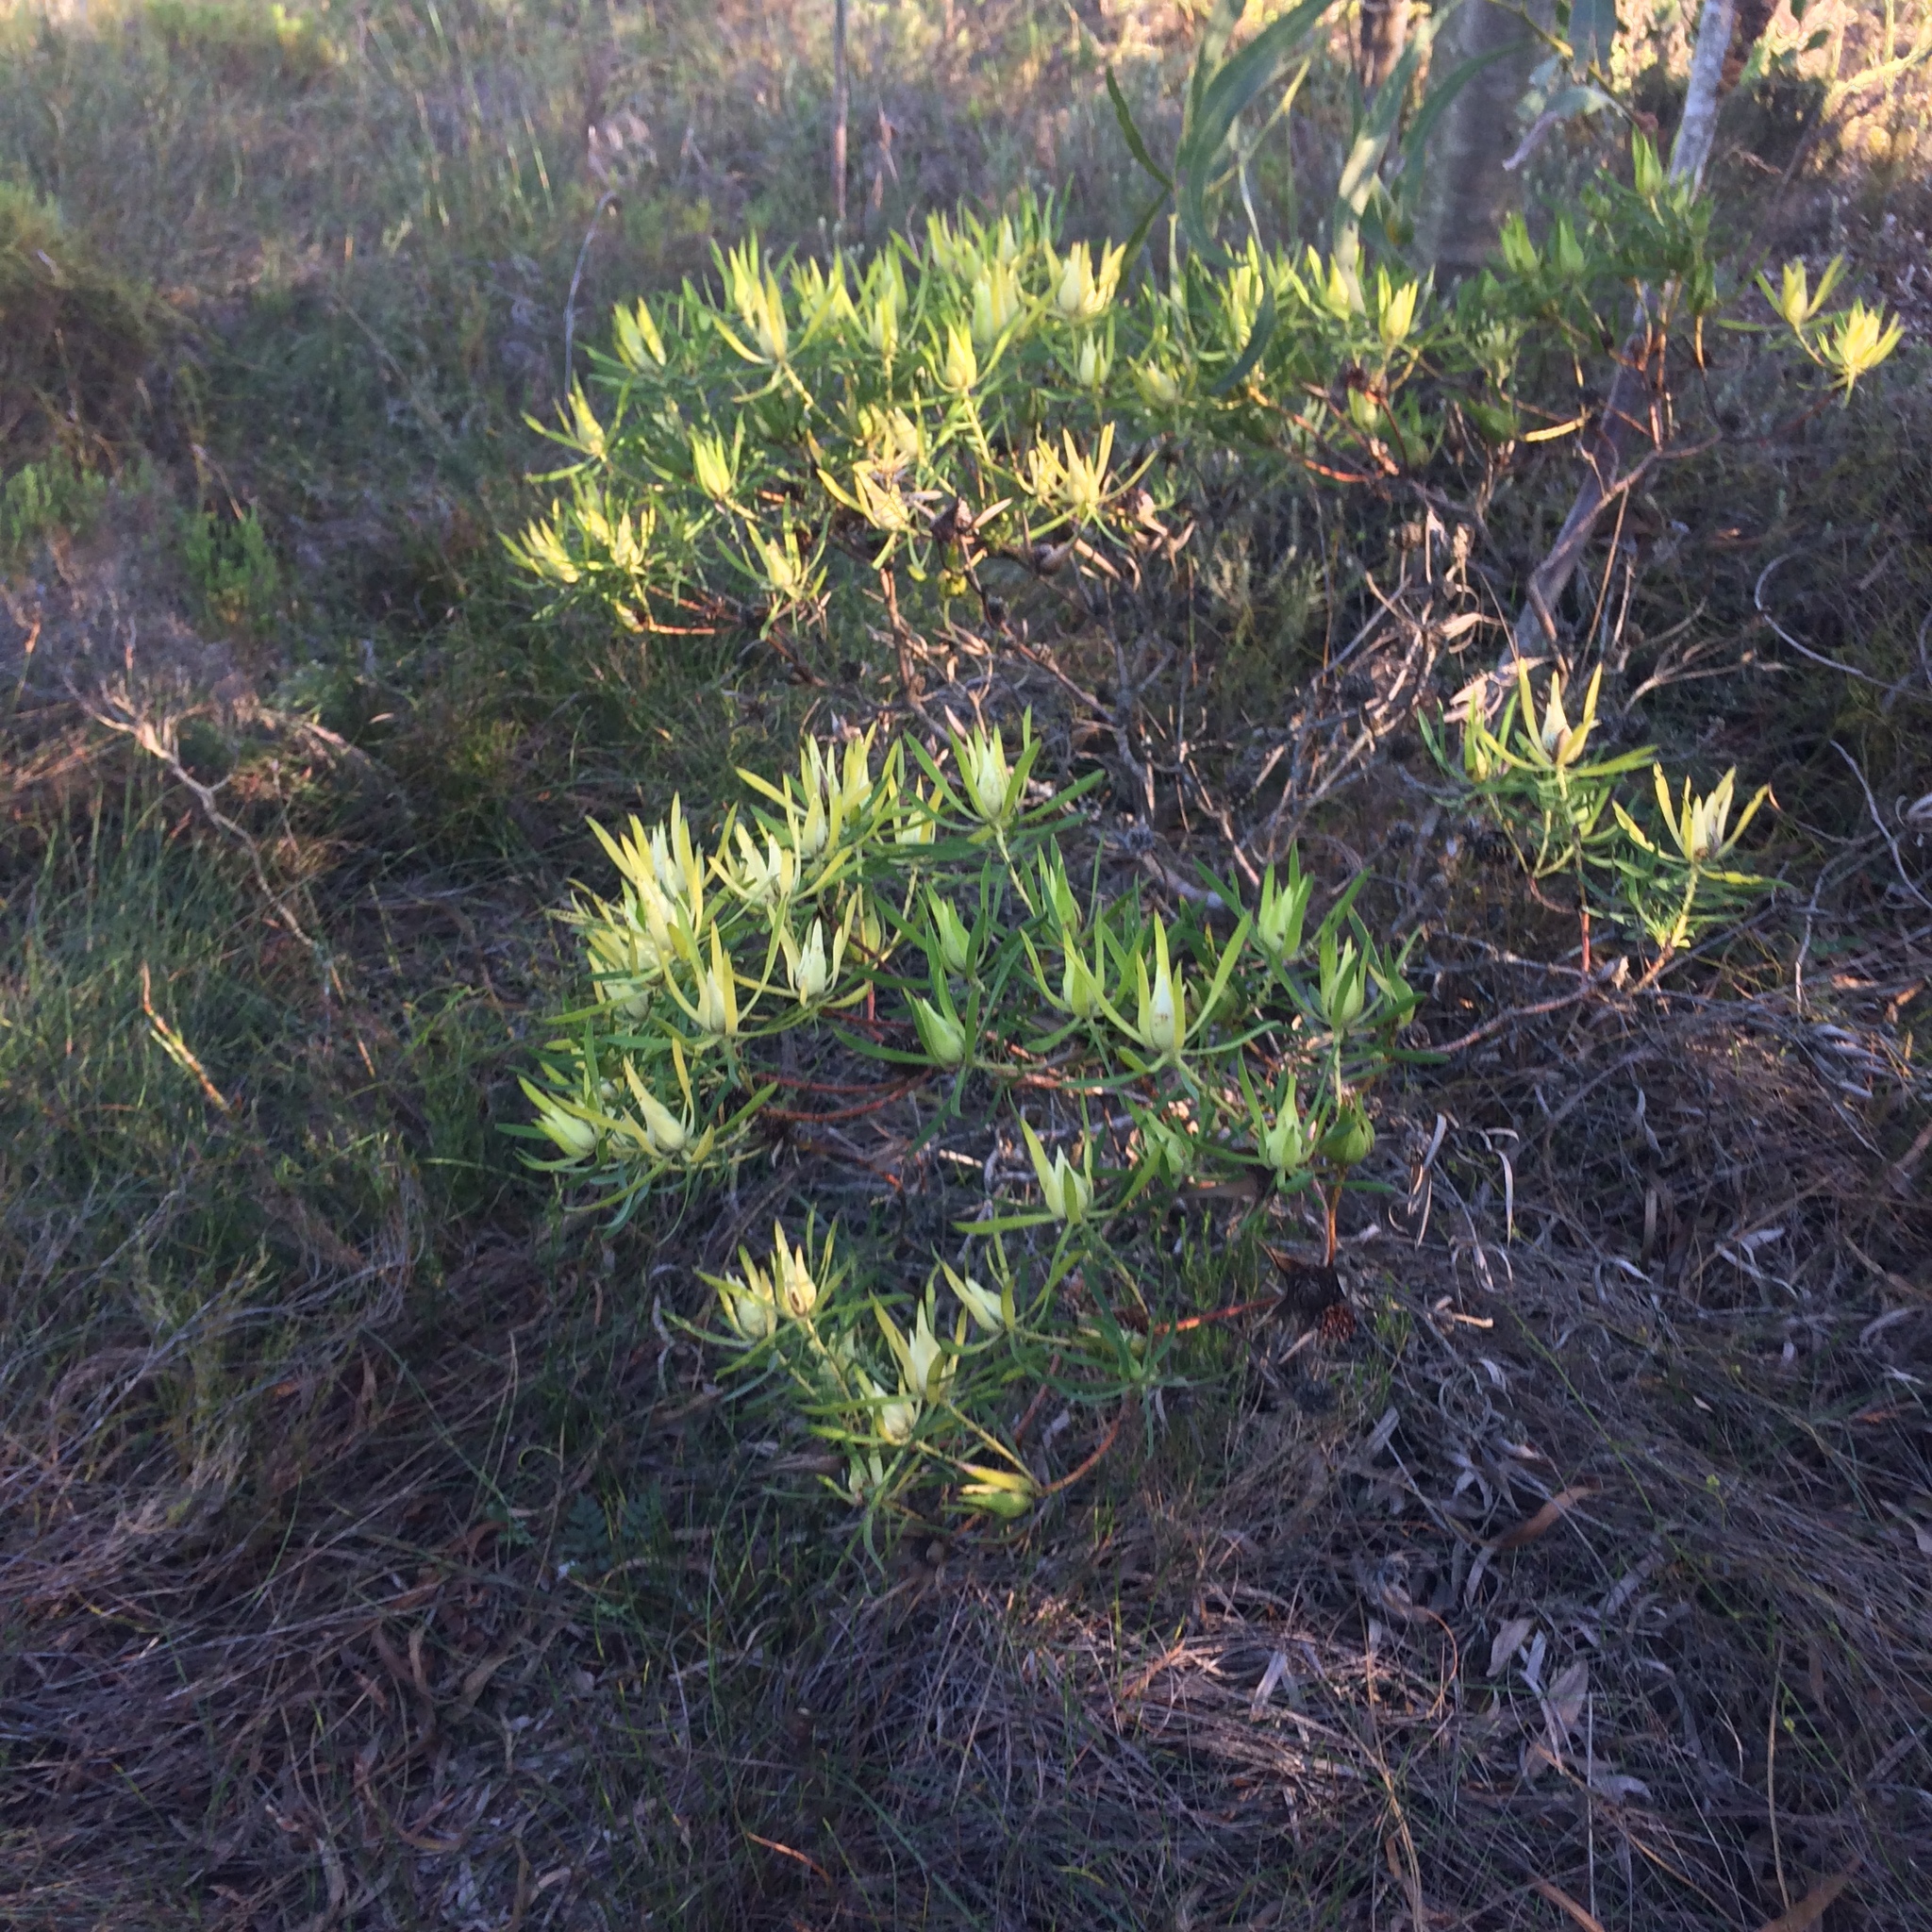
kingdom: Plantae
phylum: Tracheophyta
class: Magnoliopsida
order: Proteales
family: Proteaceae
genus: Leucadendron
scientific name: Leucadendron salignum
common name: Common sunshine conebush
